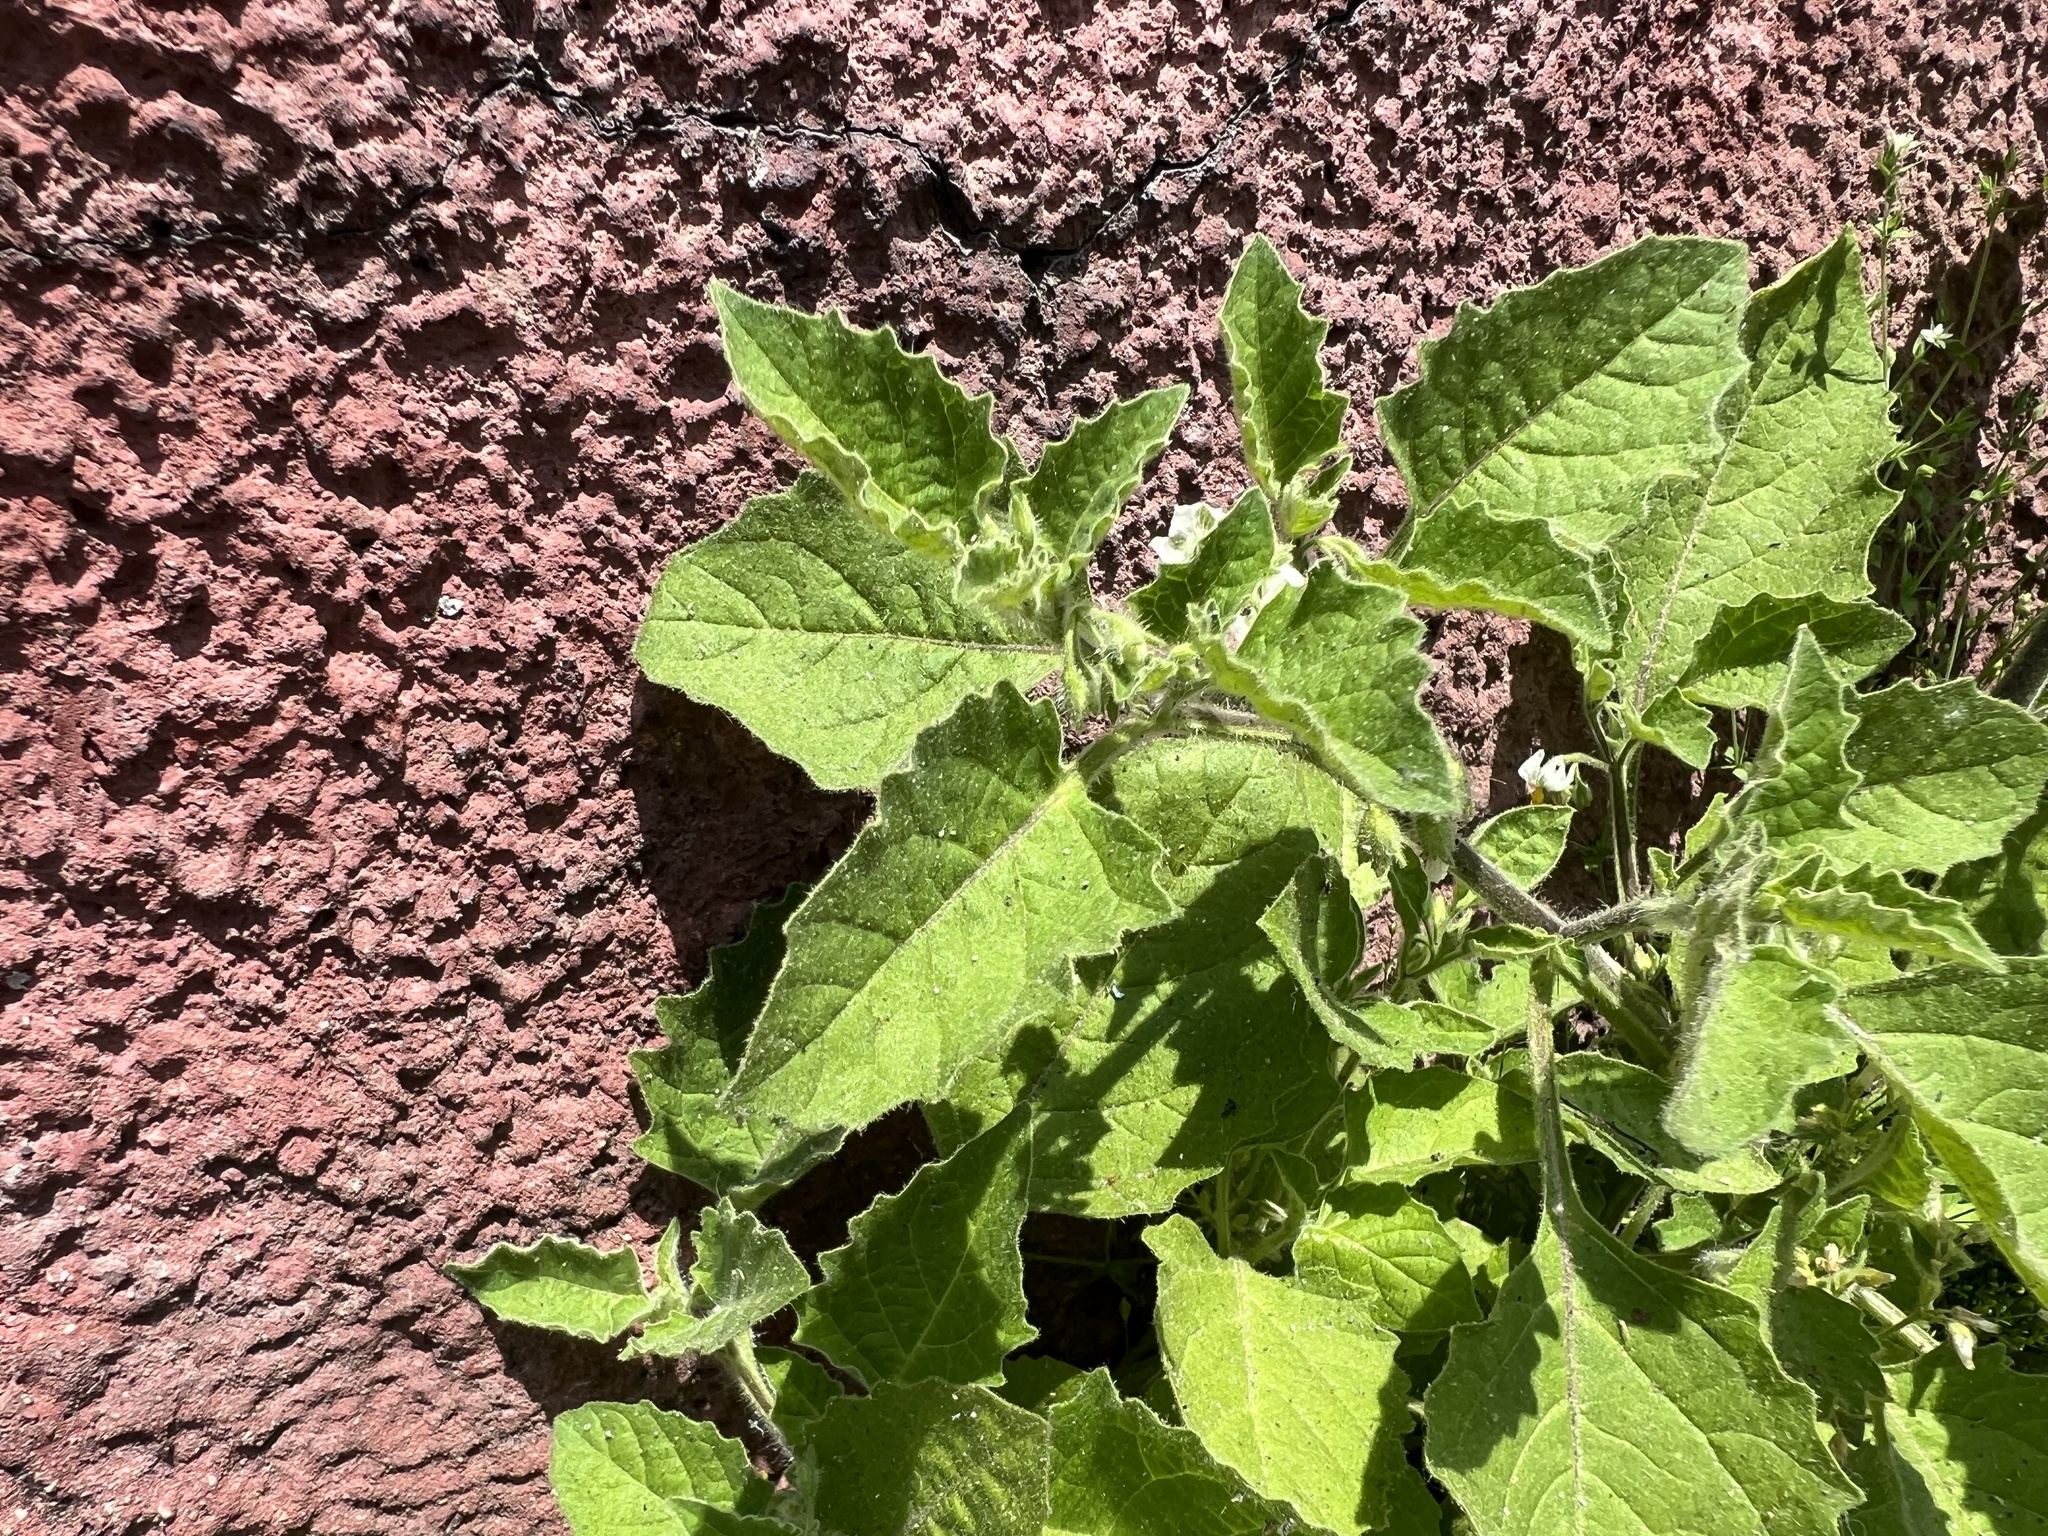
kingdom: Plantae
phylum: Tracheophyta
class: Magnoliopsida
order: Solanales
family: Solanaceae
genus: Solanum
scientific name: Solanum sarrachoides
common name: Leafy-fruited nightshade
